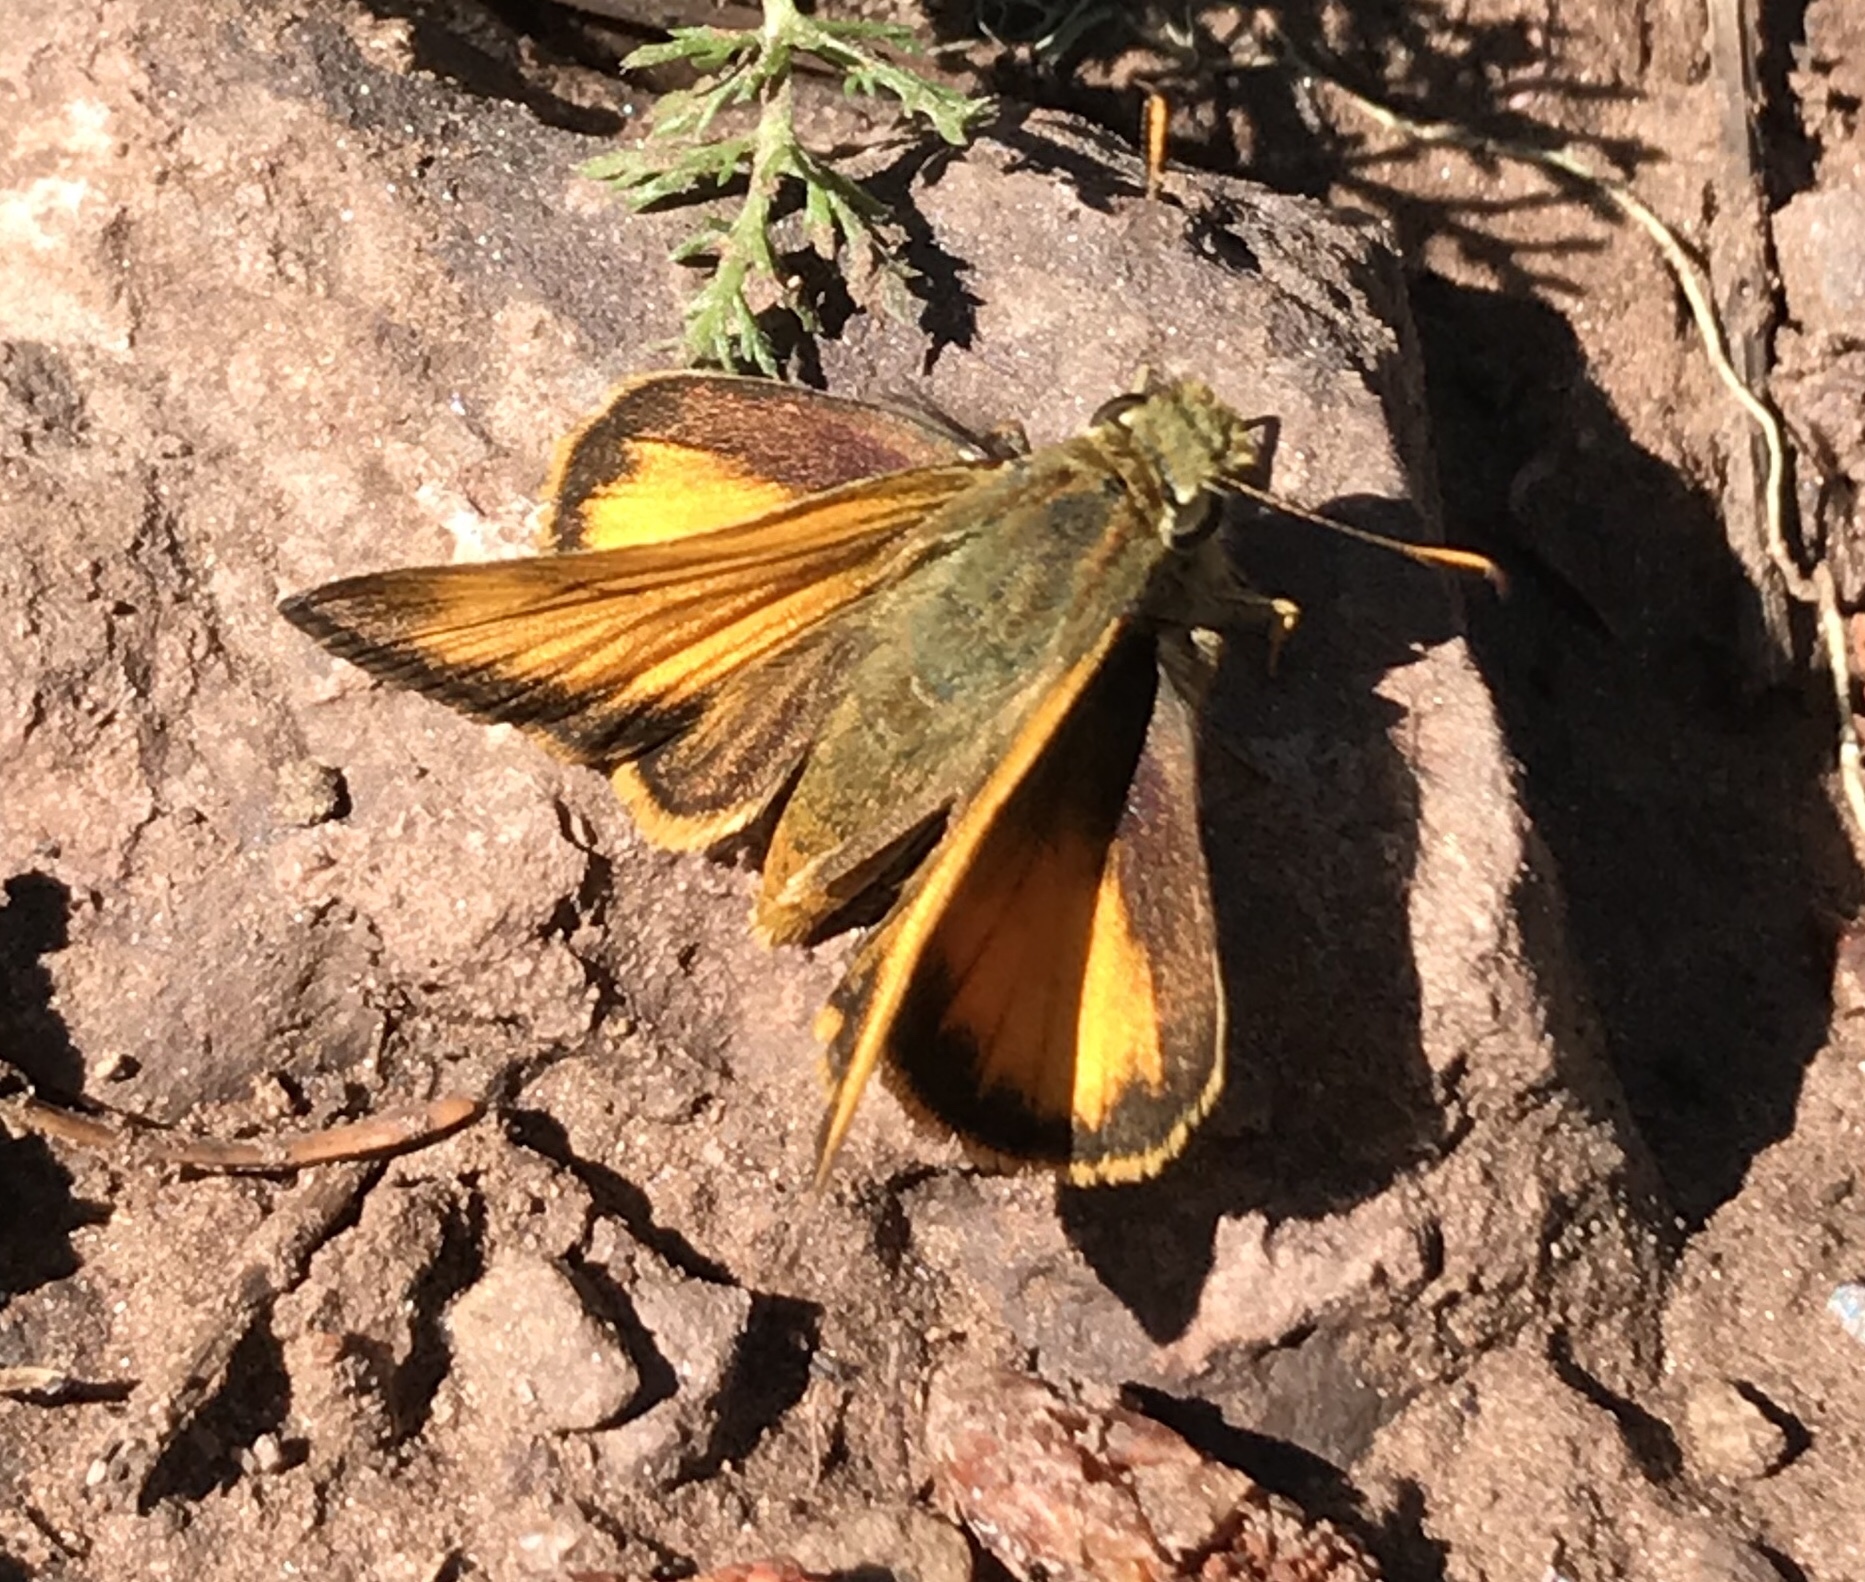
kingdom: Animalia
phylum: Arthropoda
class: Insecta
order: Lepidoptera
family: Hesperiidae
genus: Lon
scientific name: Lon taxiles
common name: Taxiles skipper
